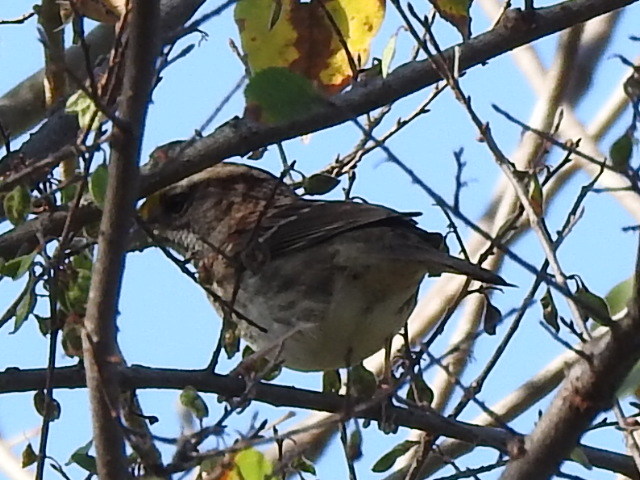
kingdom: Animalia
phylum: Chordata
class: Aves
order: Passeriformes
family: Passerellidae
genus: Zonotrichia
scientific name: Zonotrichia albicollis
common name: White-throated sparrow
